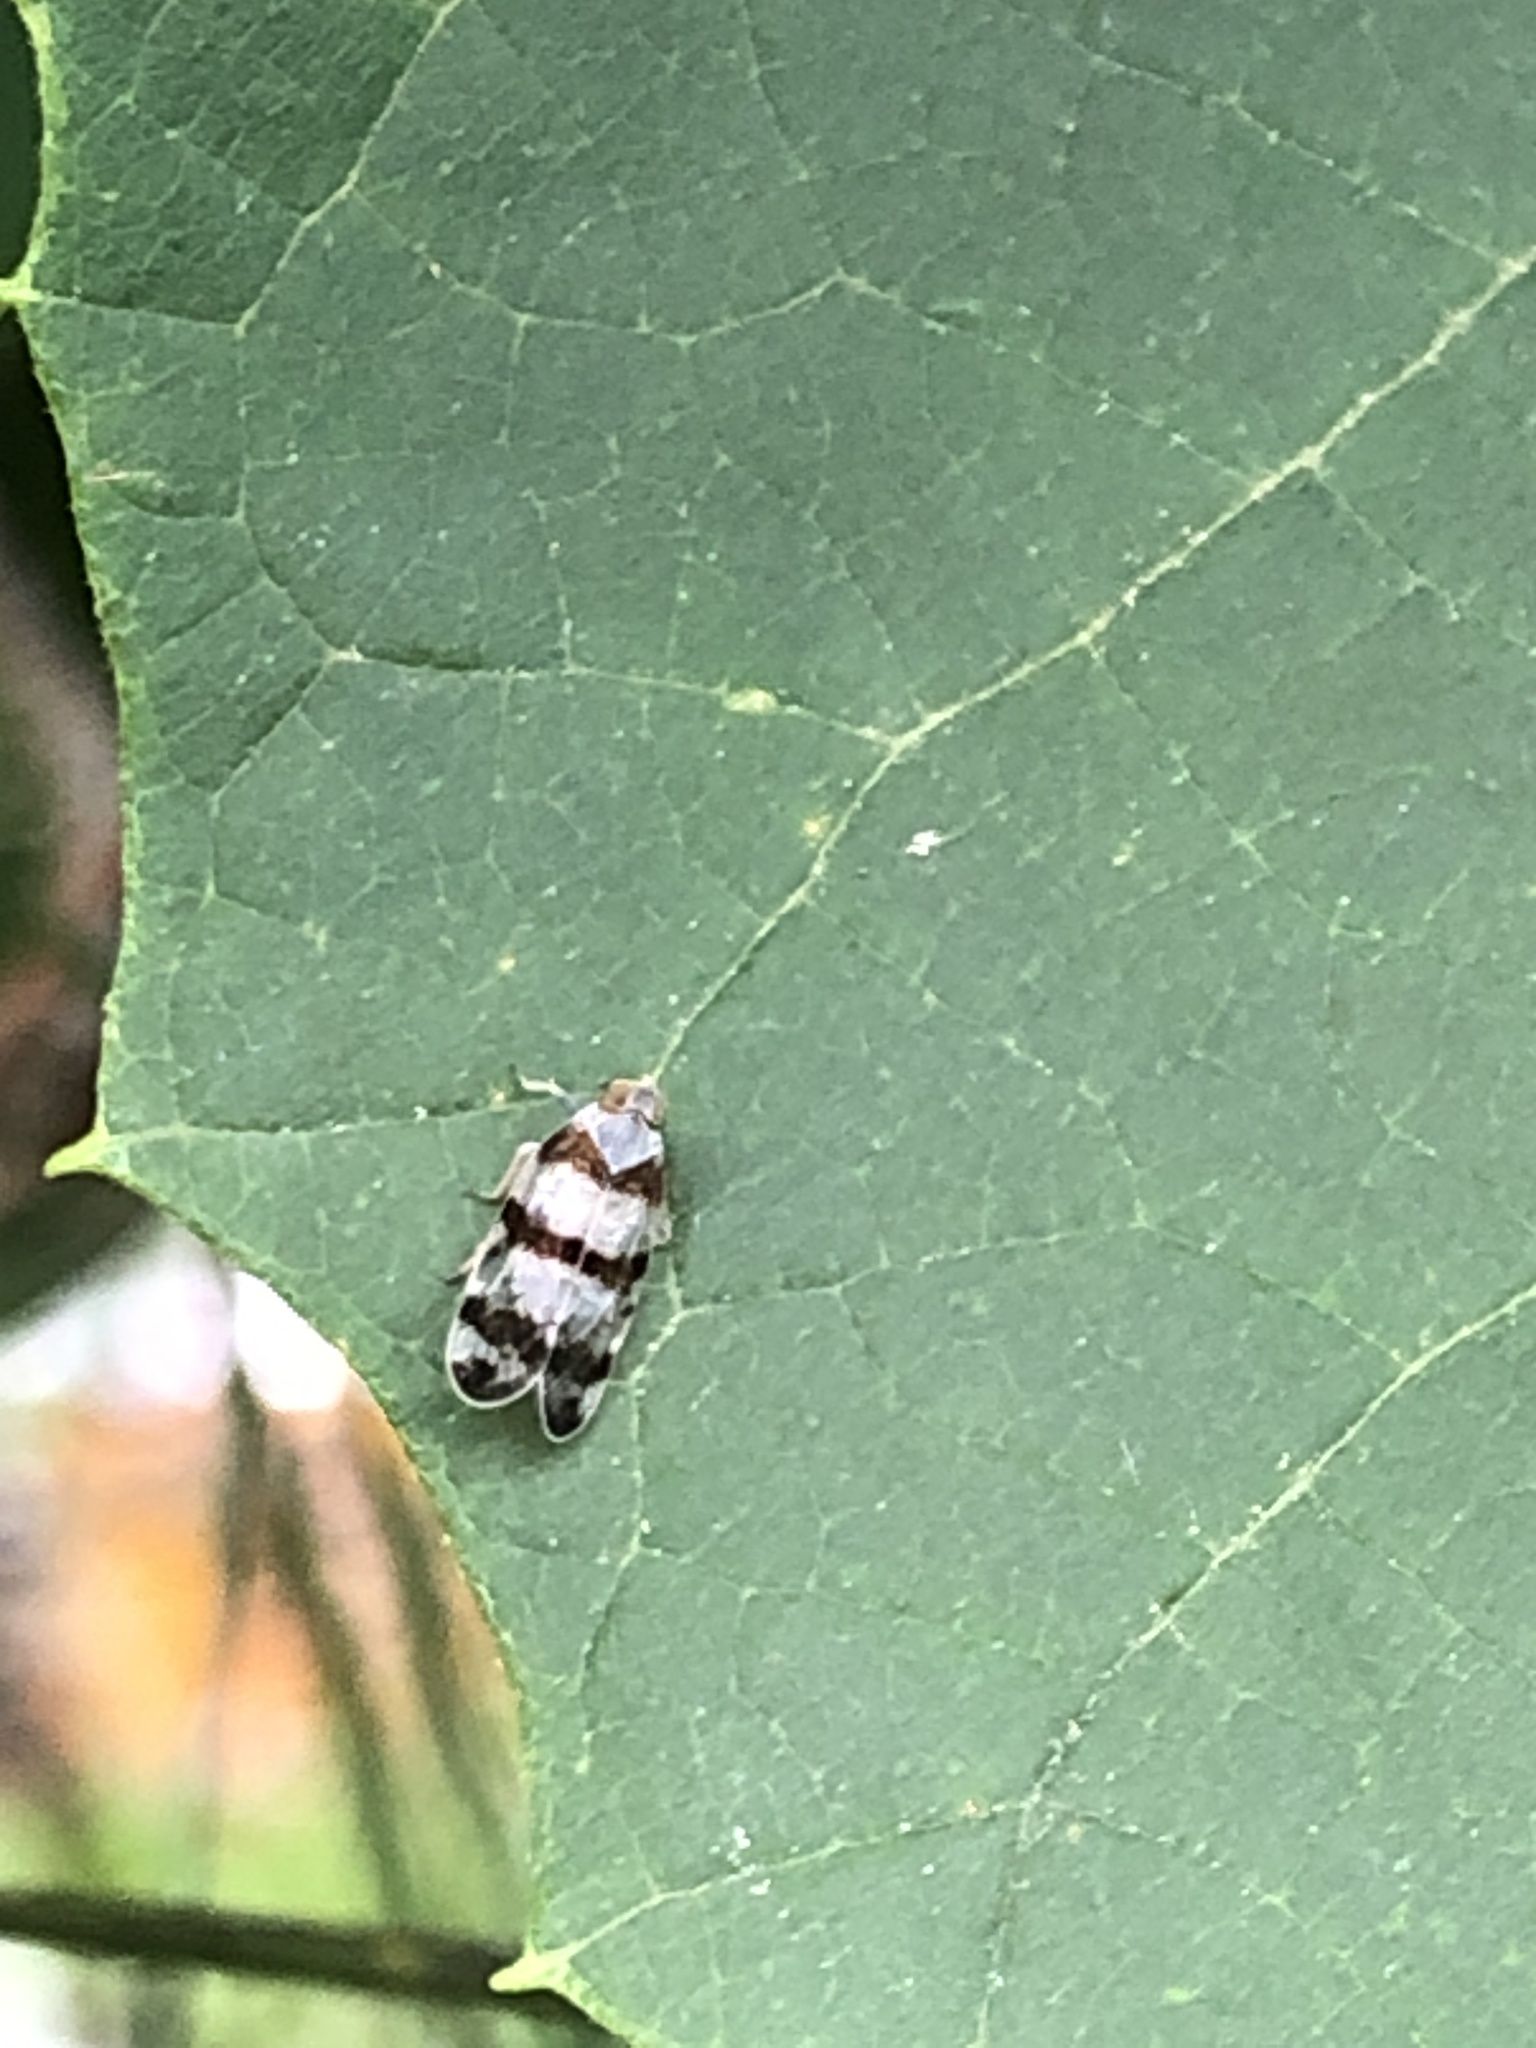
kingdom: Animalia
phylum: Arthropoda
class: Insecta
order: Hemiptera
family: Cixiidae
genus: Reptalus
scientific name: Reptalus quadricinctus
